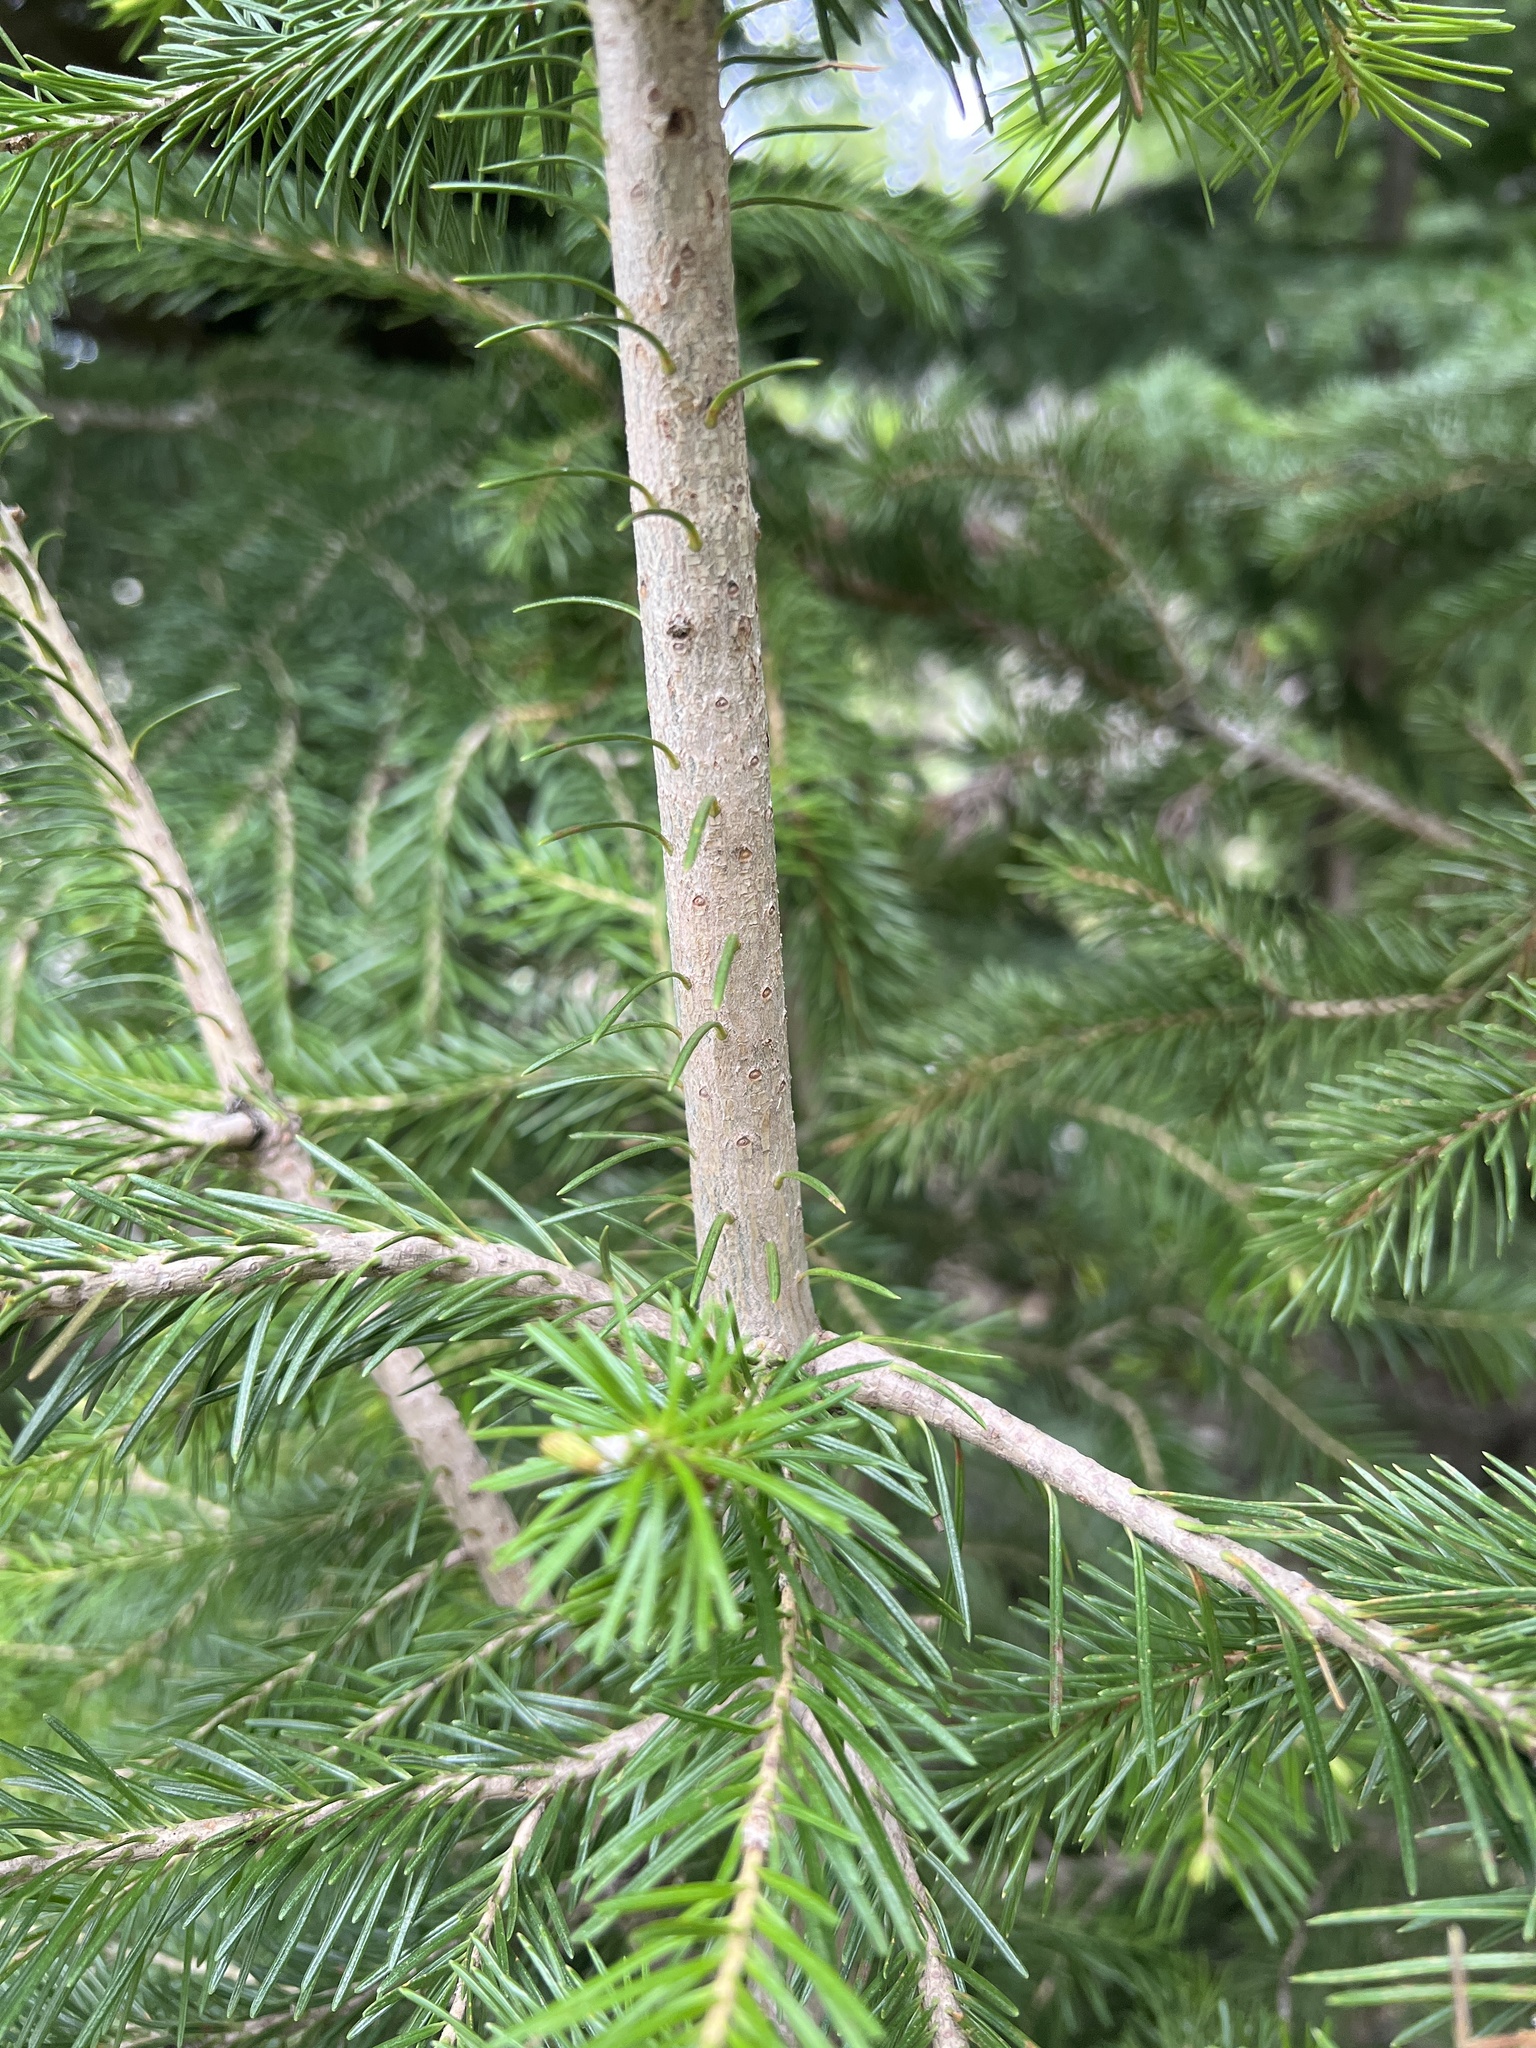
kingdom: Plantae
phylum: Tracheophyta
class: Pinopsida
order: Pinales
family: Pinaceae
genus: Abies
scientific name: Abies lasiocarpa
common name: Subalpine fir
